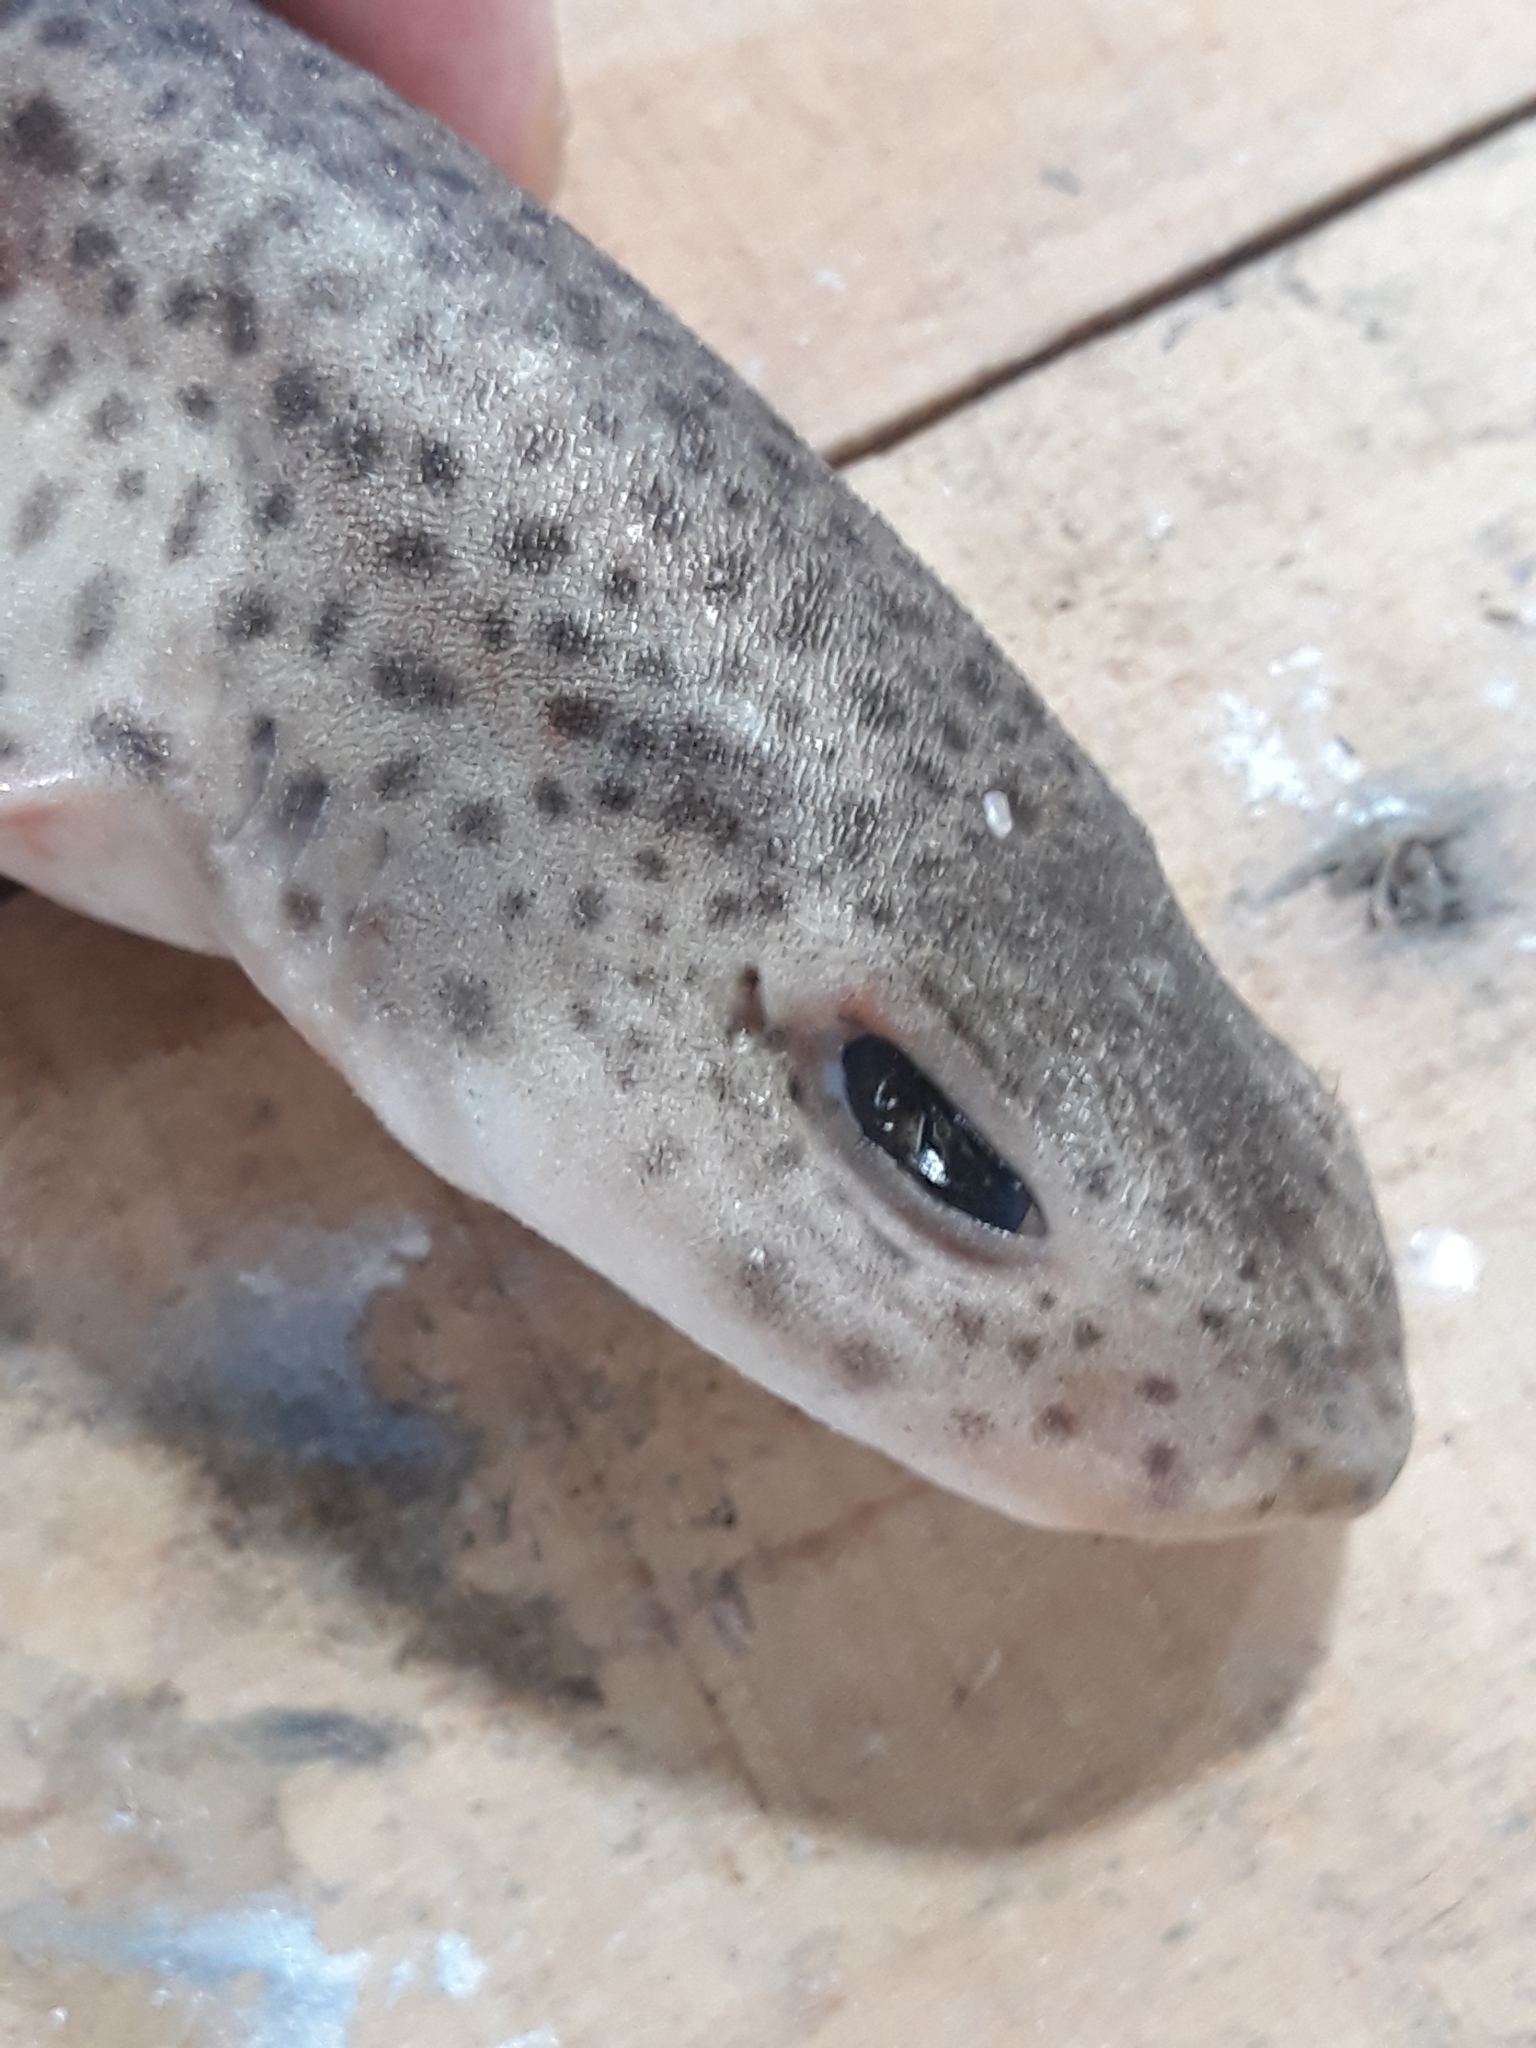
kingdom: Animalia
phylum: Chordata
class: Elasmobranchii
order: Carcharhiniformes
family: Scyliorhinidae
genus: Scyliorhinus
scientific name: Scyliorhinus canicula
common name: Lesser spotted dogfish
